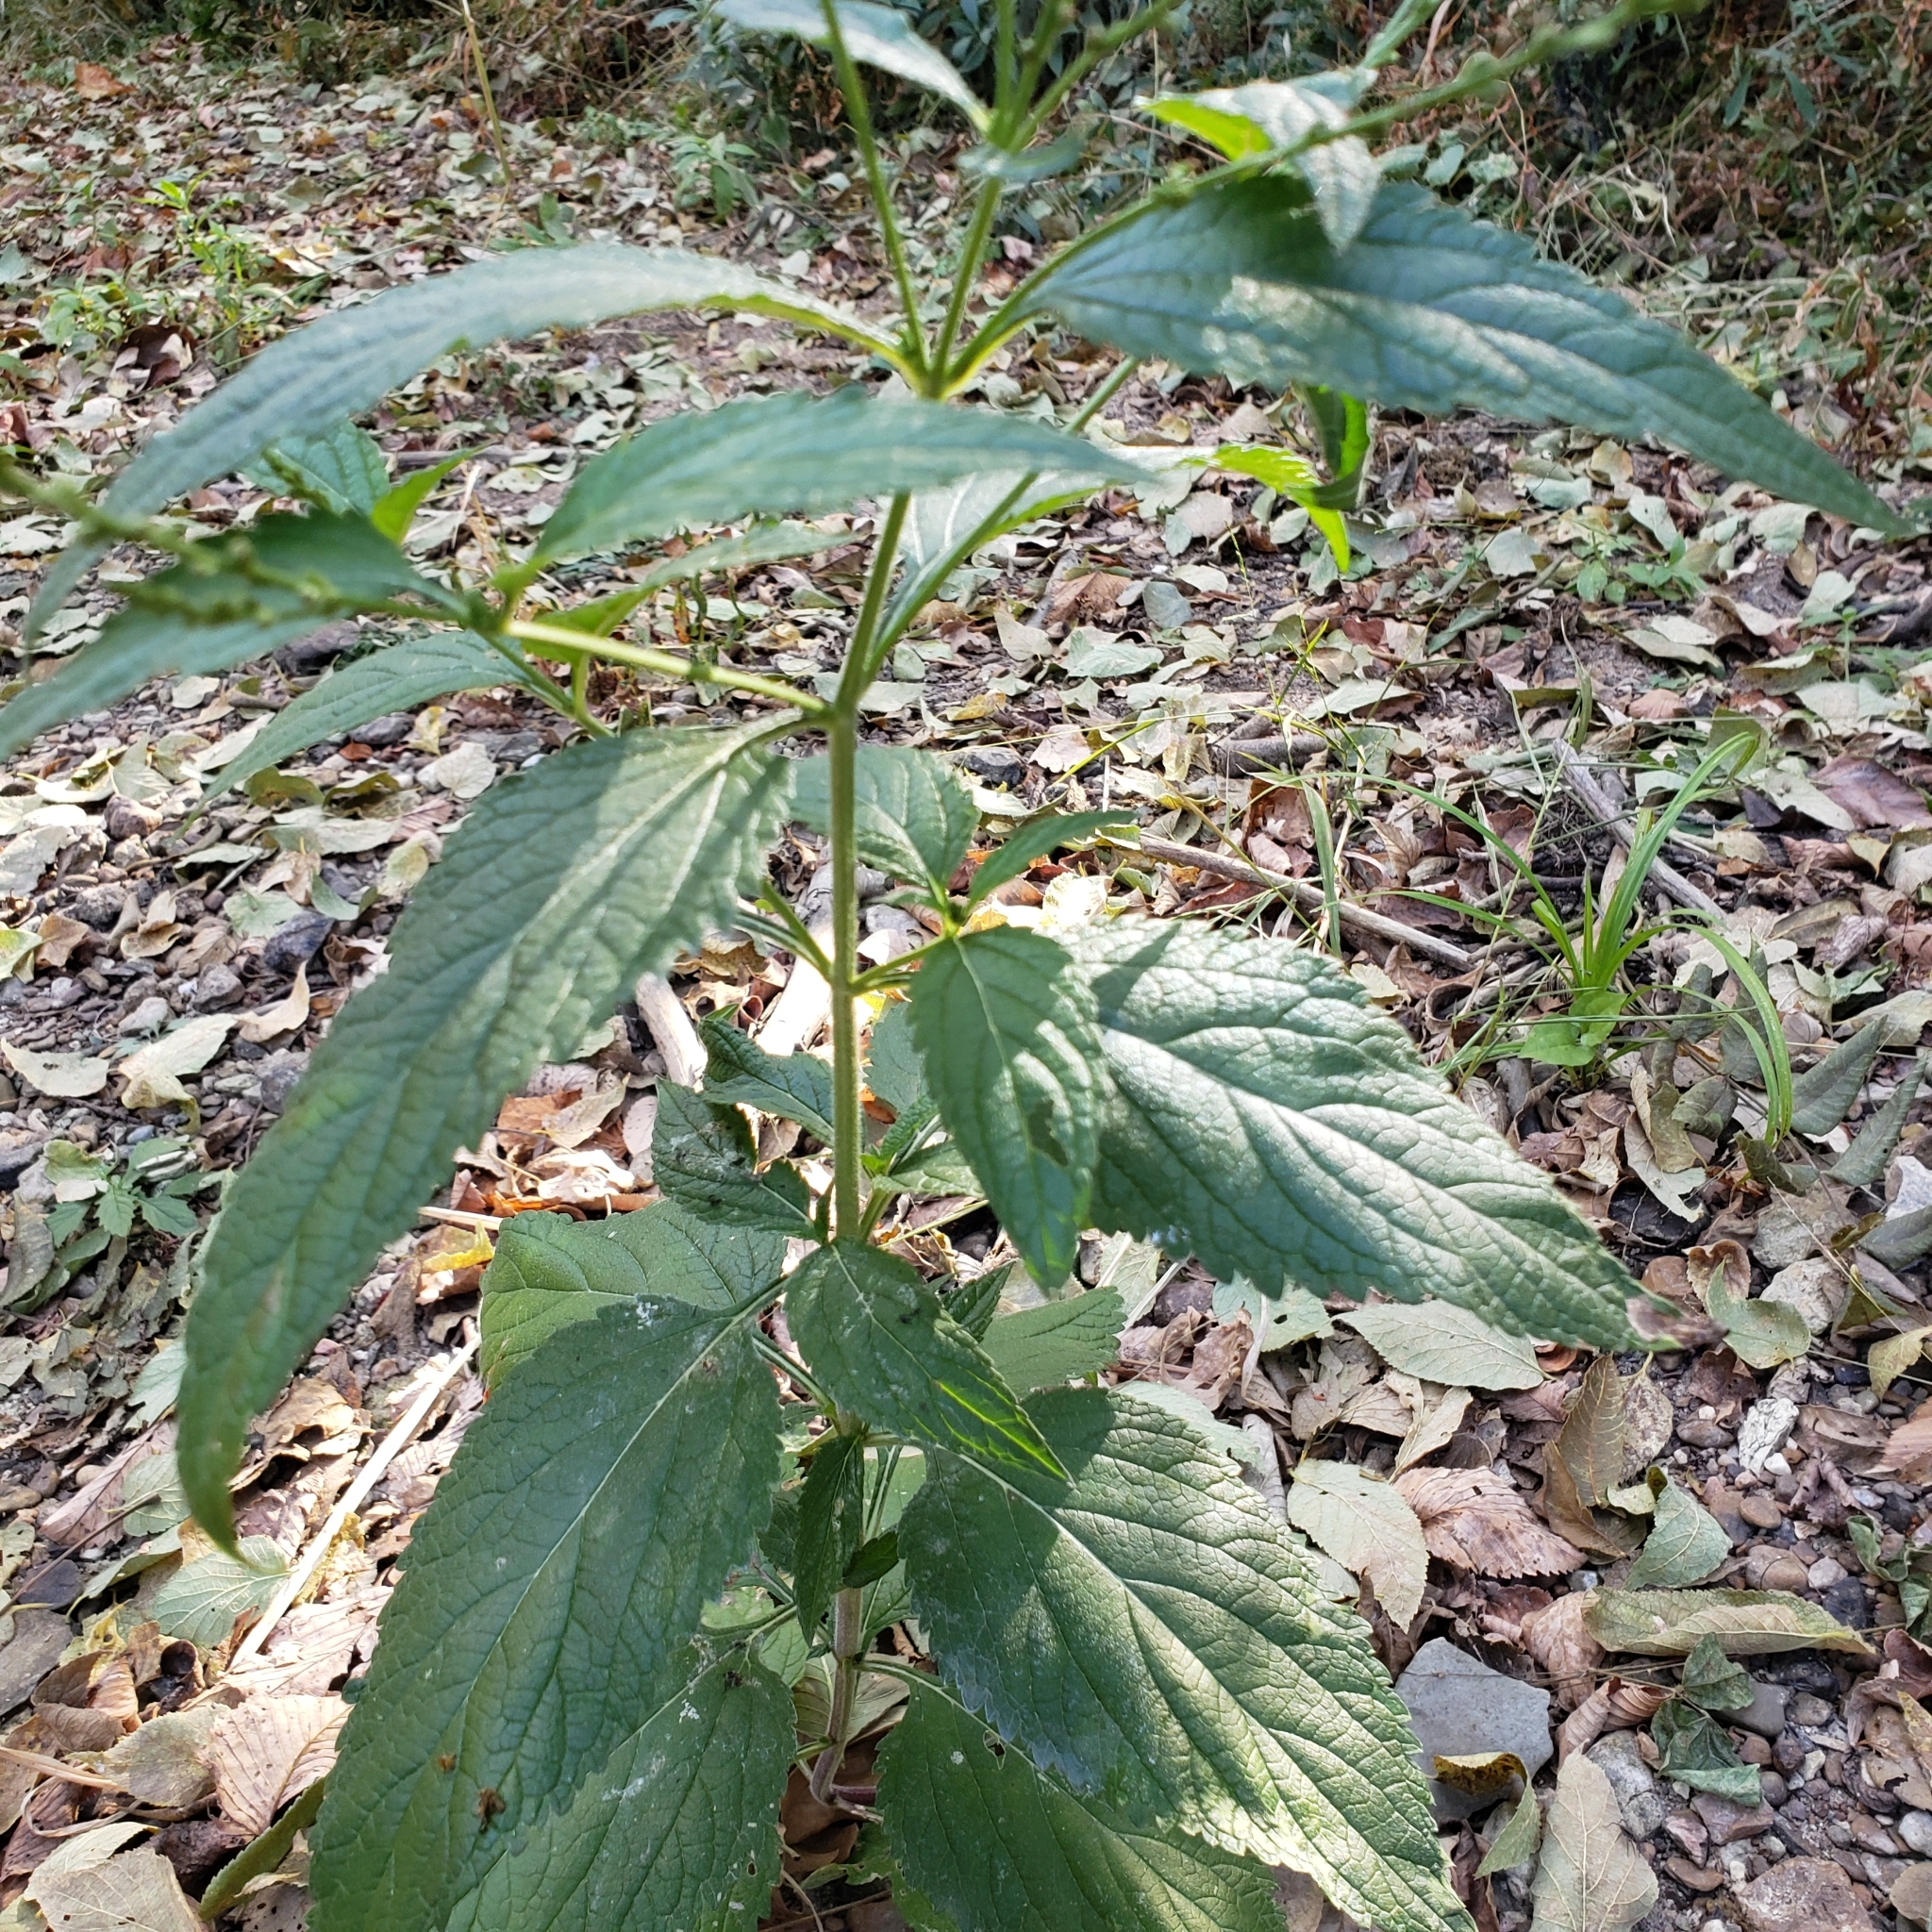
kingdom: Plantae
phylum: Tracheophyta
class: Magnoliopsida
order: Lamiales
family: Verbenaceae
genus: Verbena
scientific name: Verbena urticifolia
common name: Nettle-leaved vervain
